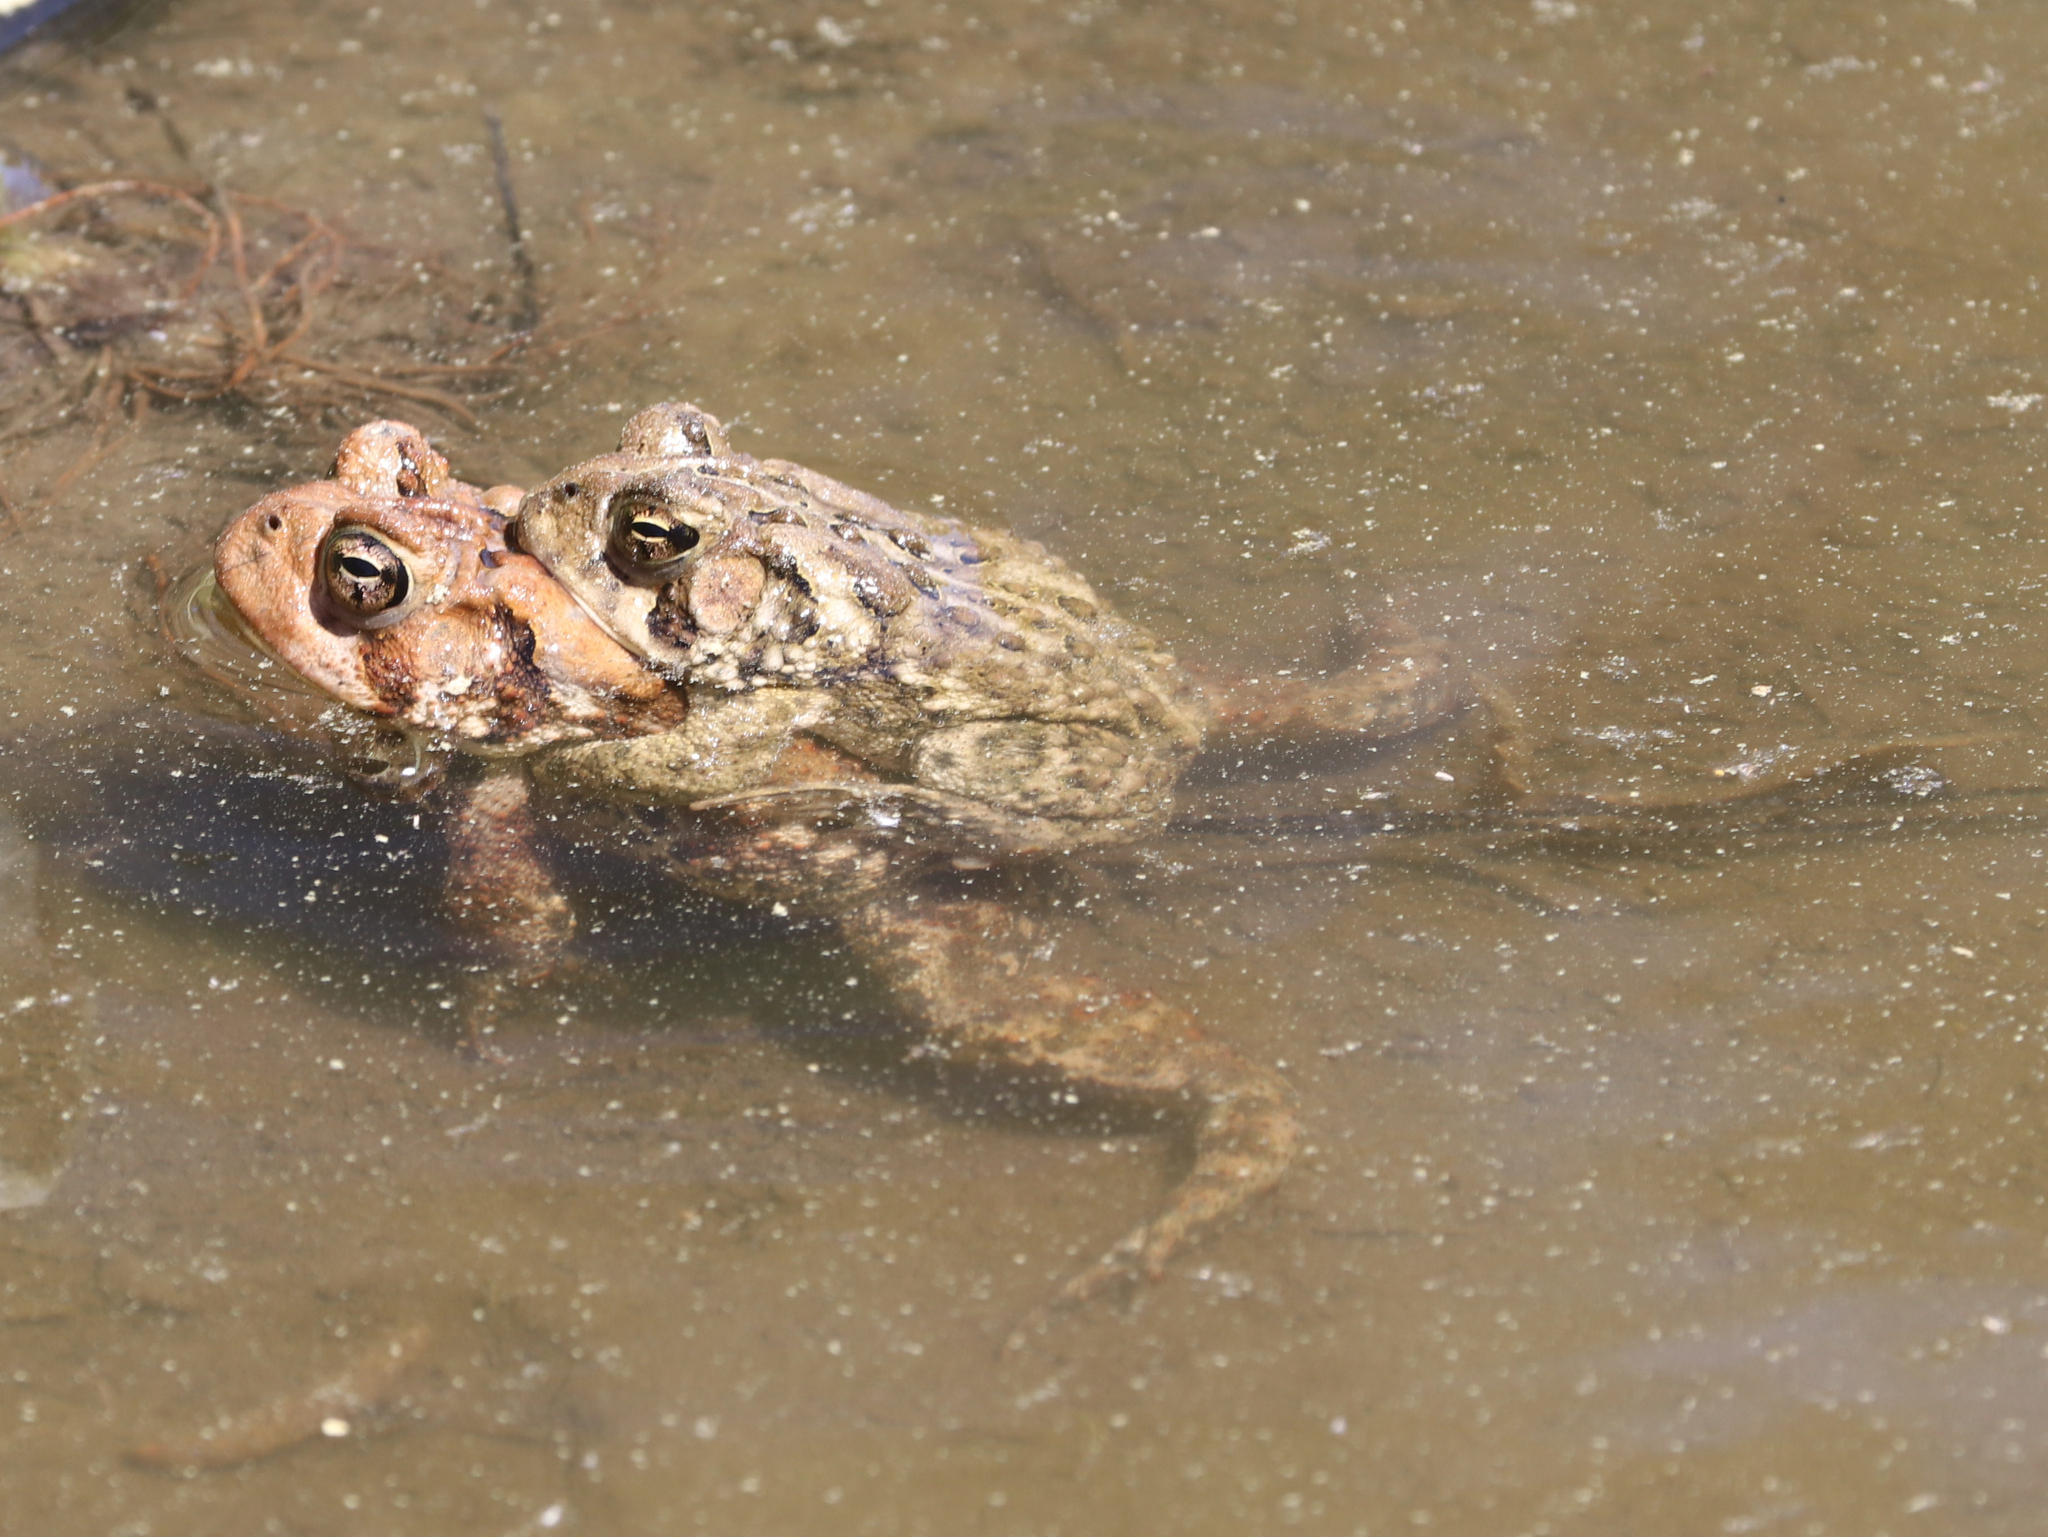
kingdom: Animalia
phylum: Chordata
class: Amphibia
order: Anura
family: Bufonidae
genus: Anaxyrus
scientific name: Anaxyrus americanus
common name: American toad
